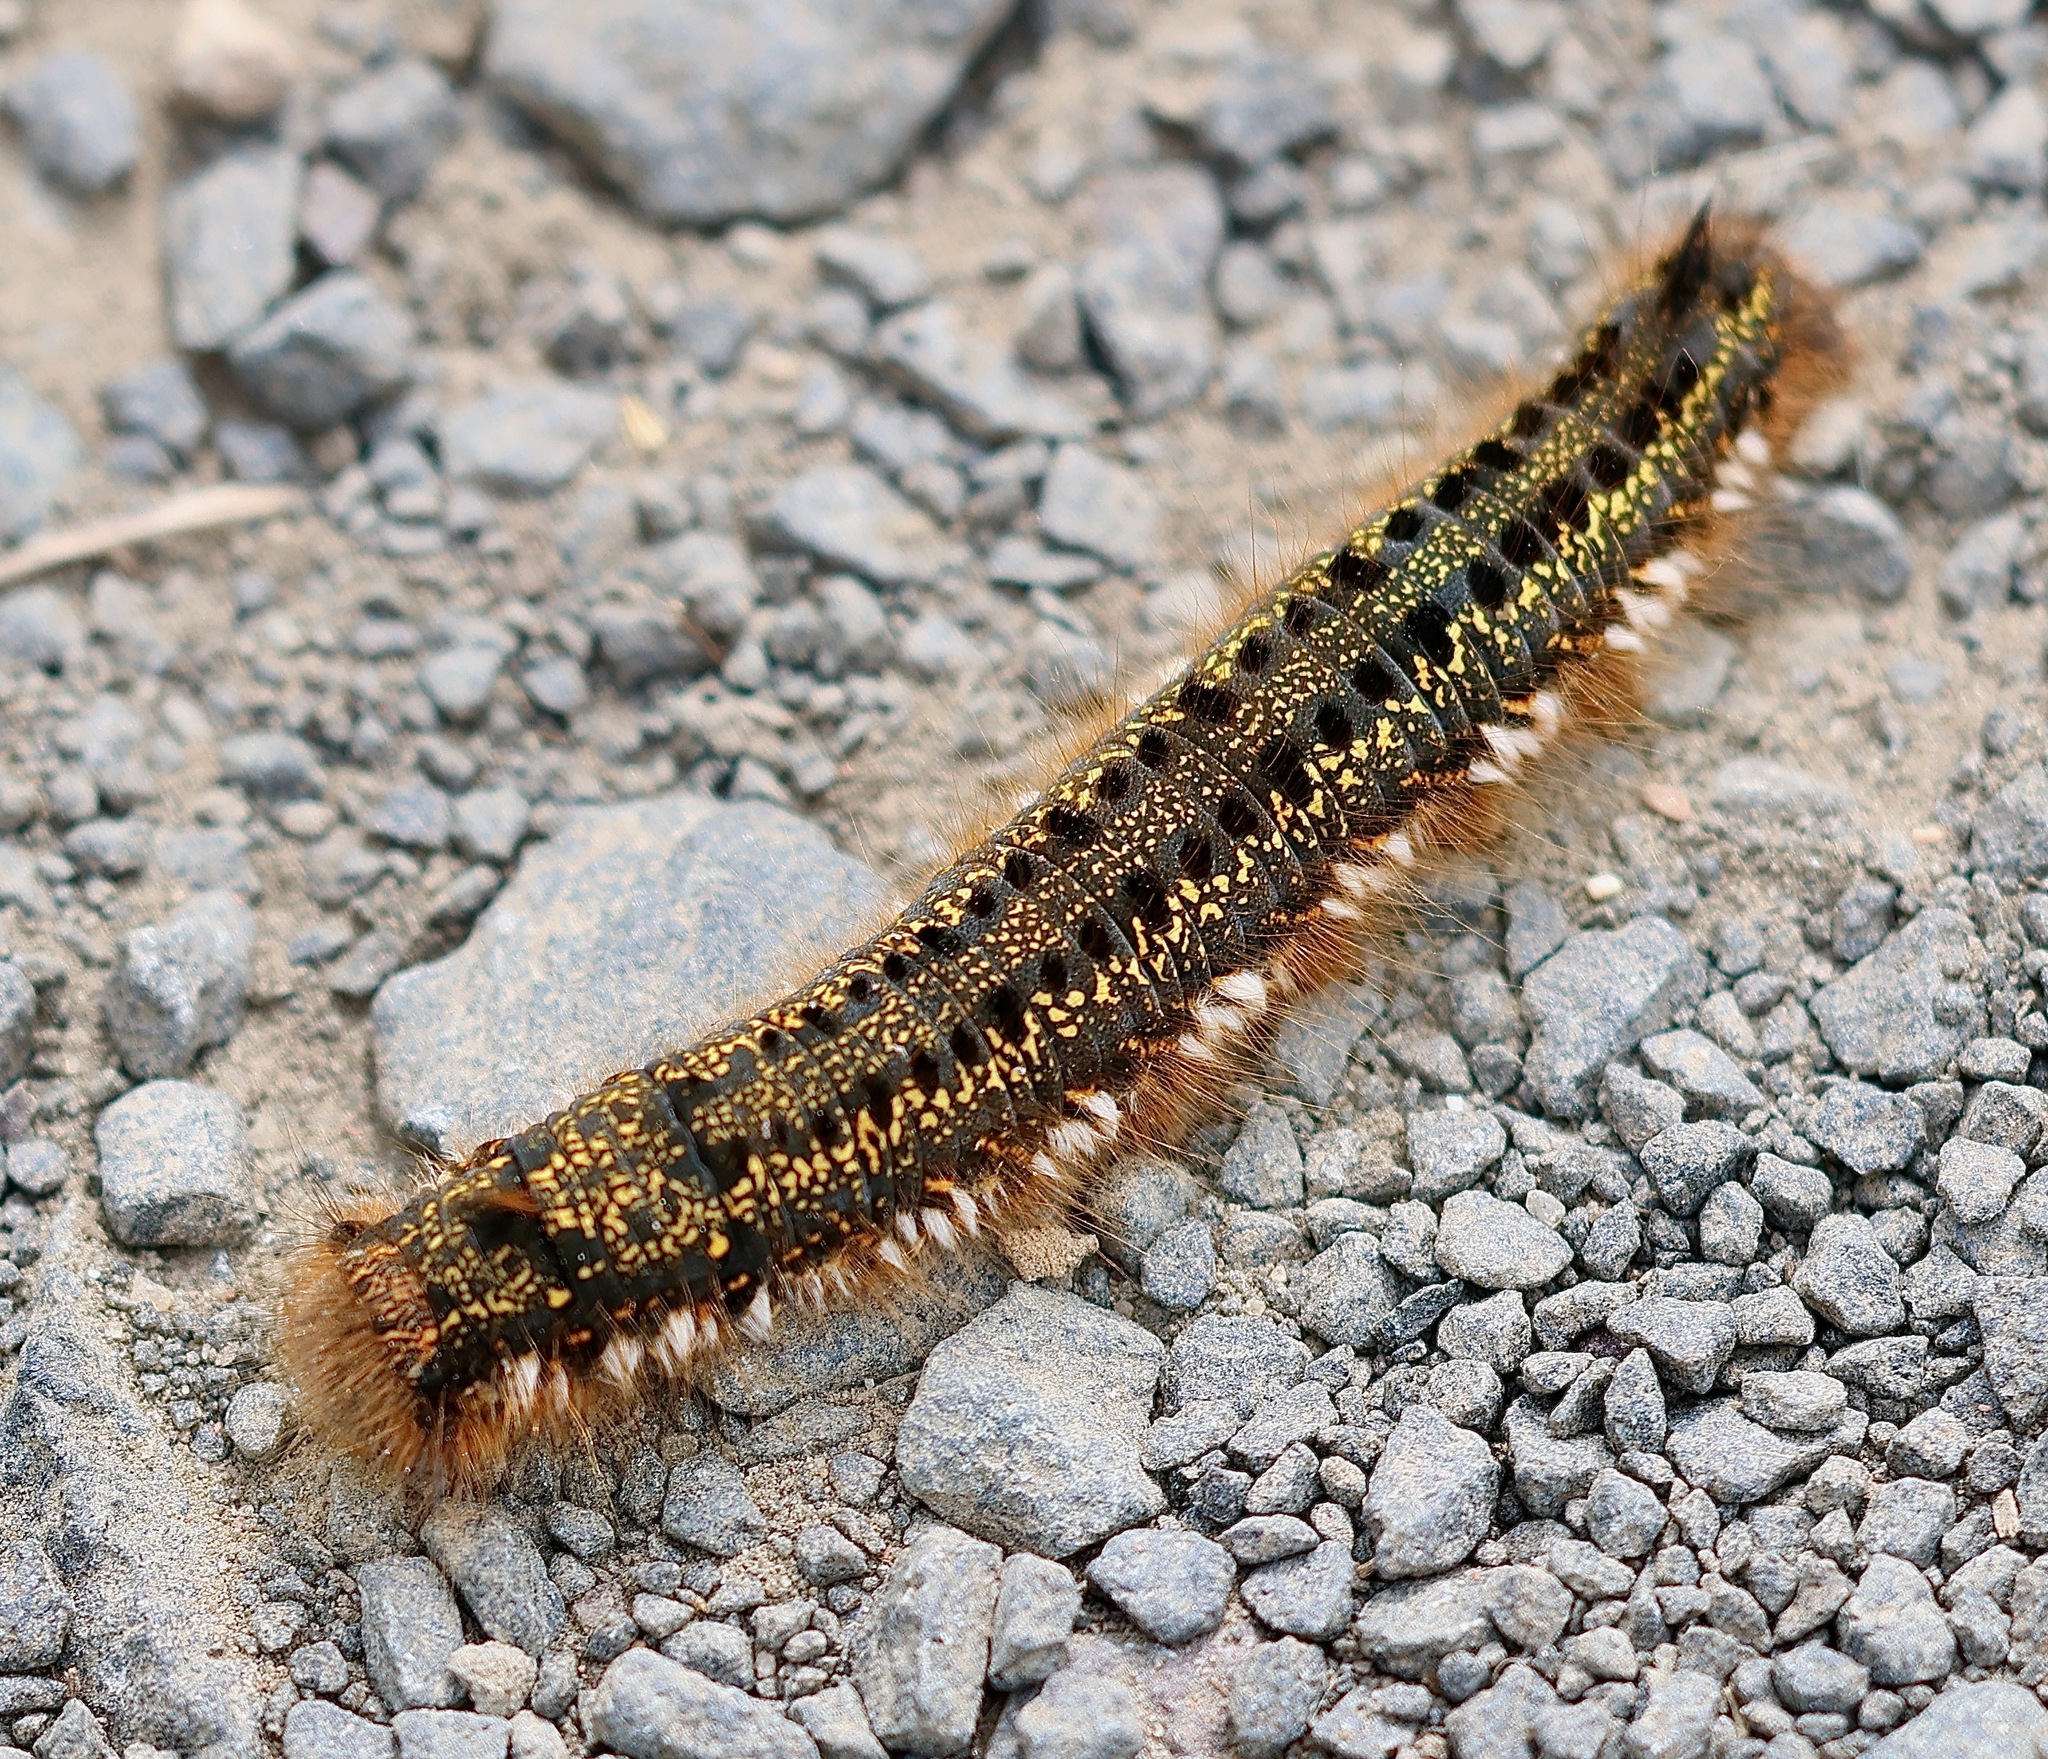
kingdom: Animalia
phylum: Arthropoda
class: Insecta
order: Lepidoptera
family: Lasiocampidae
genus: Euthrix
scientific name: Euthrix potatoria
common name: Drinker
